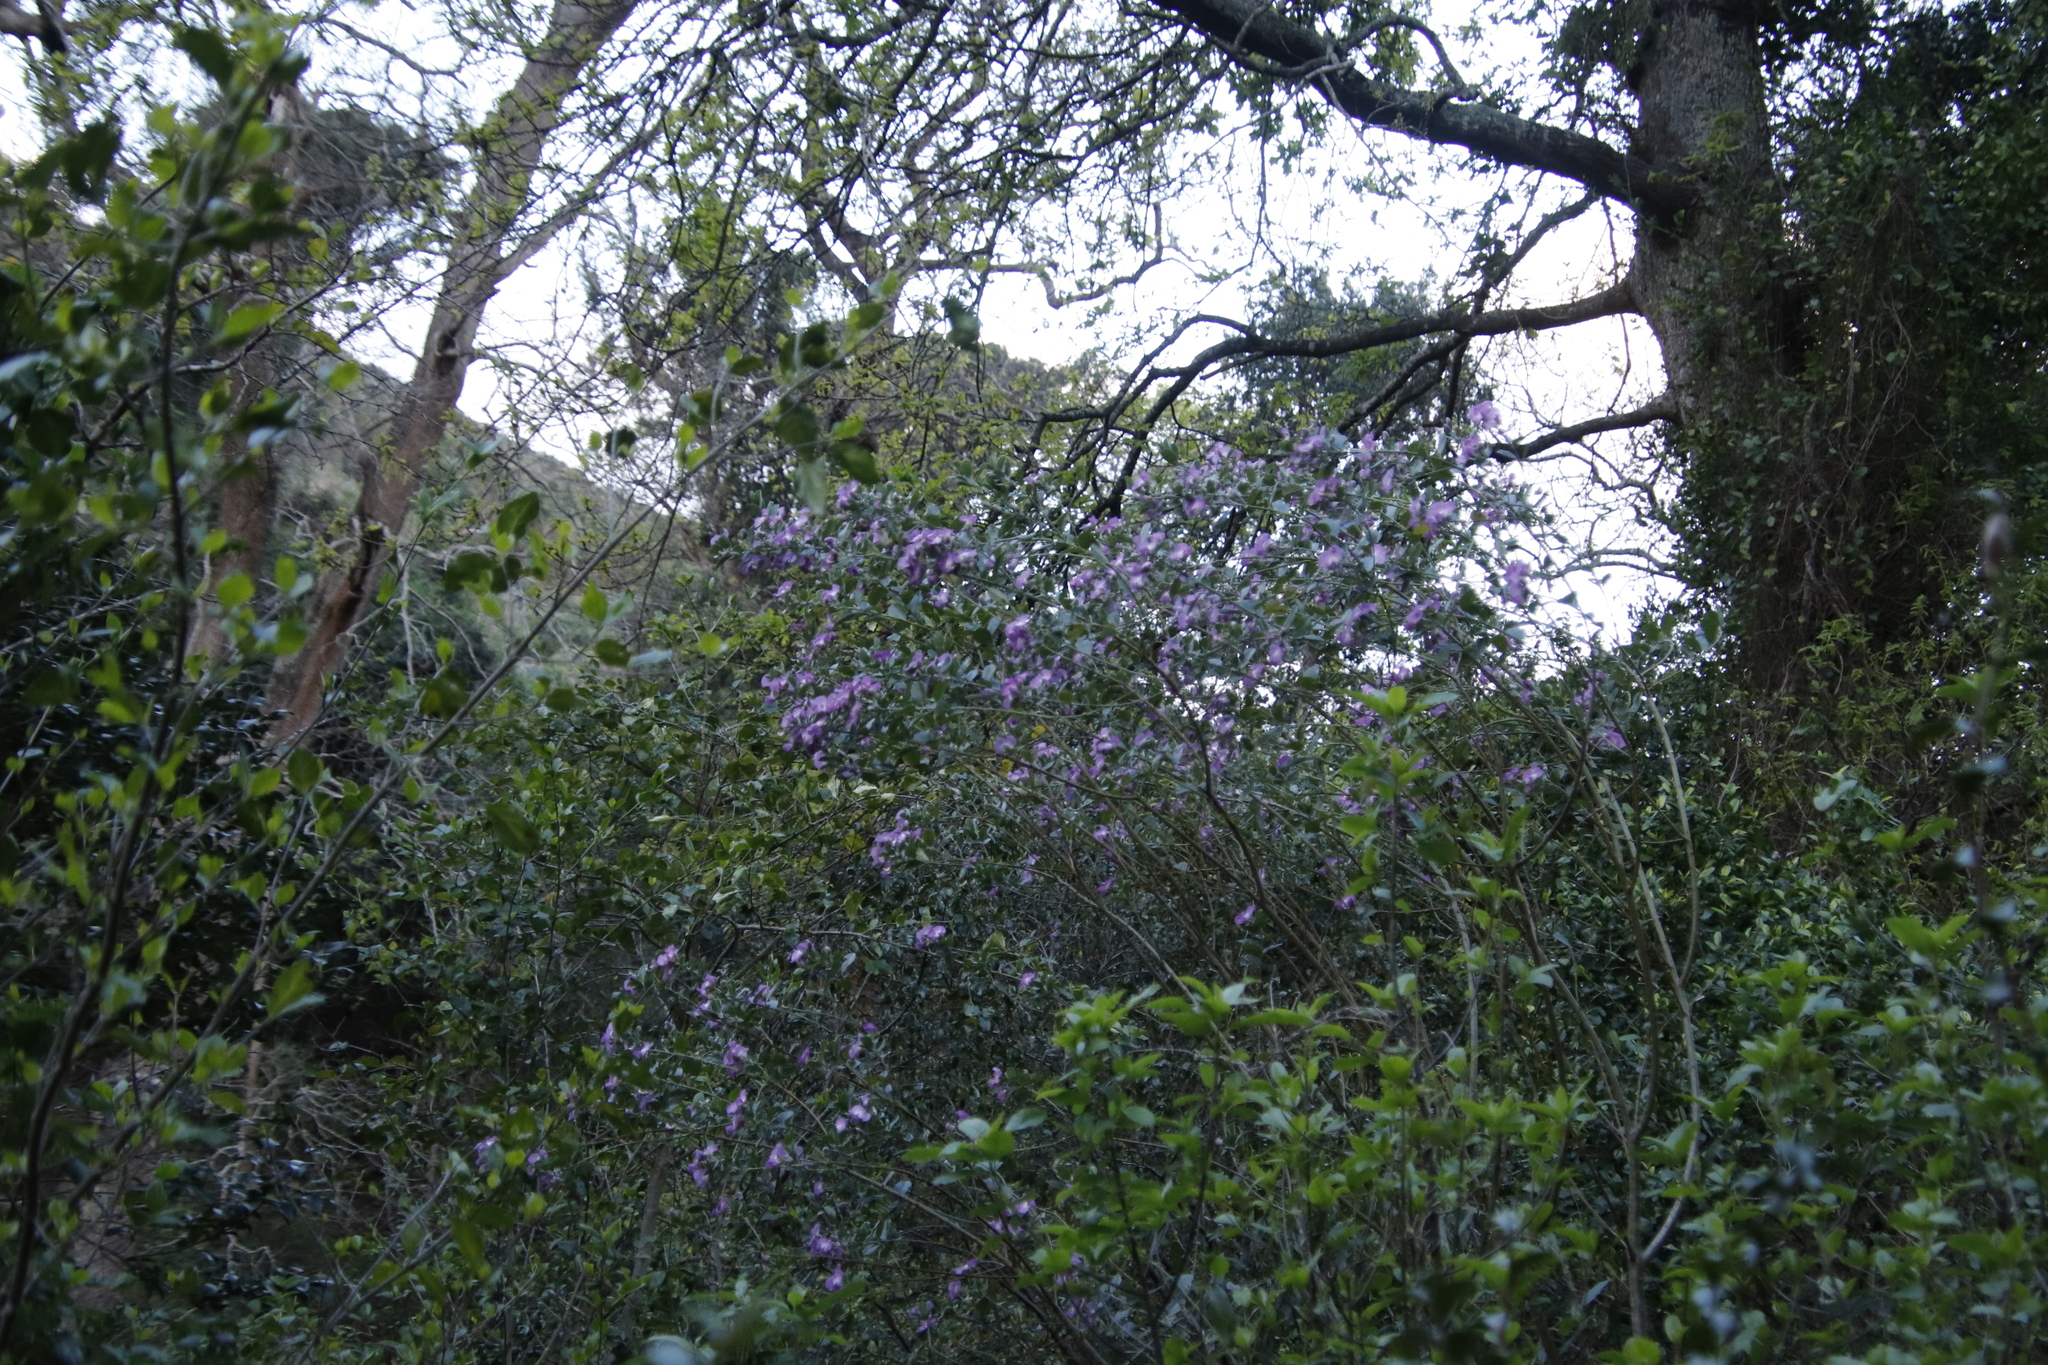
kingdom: Plantae
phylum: Tracheophyta
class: Magnoliopsida
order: Fabales
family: Fabaceae
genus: Podalyria
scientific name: Podalyria calyptrata
